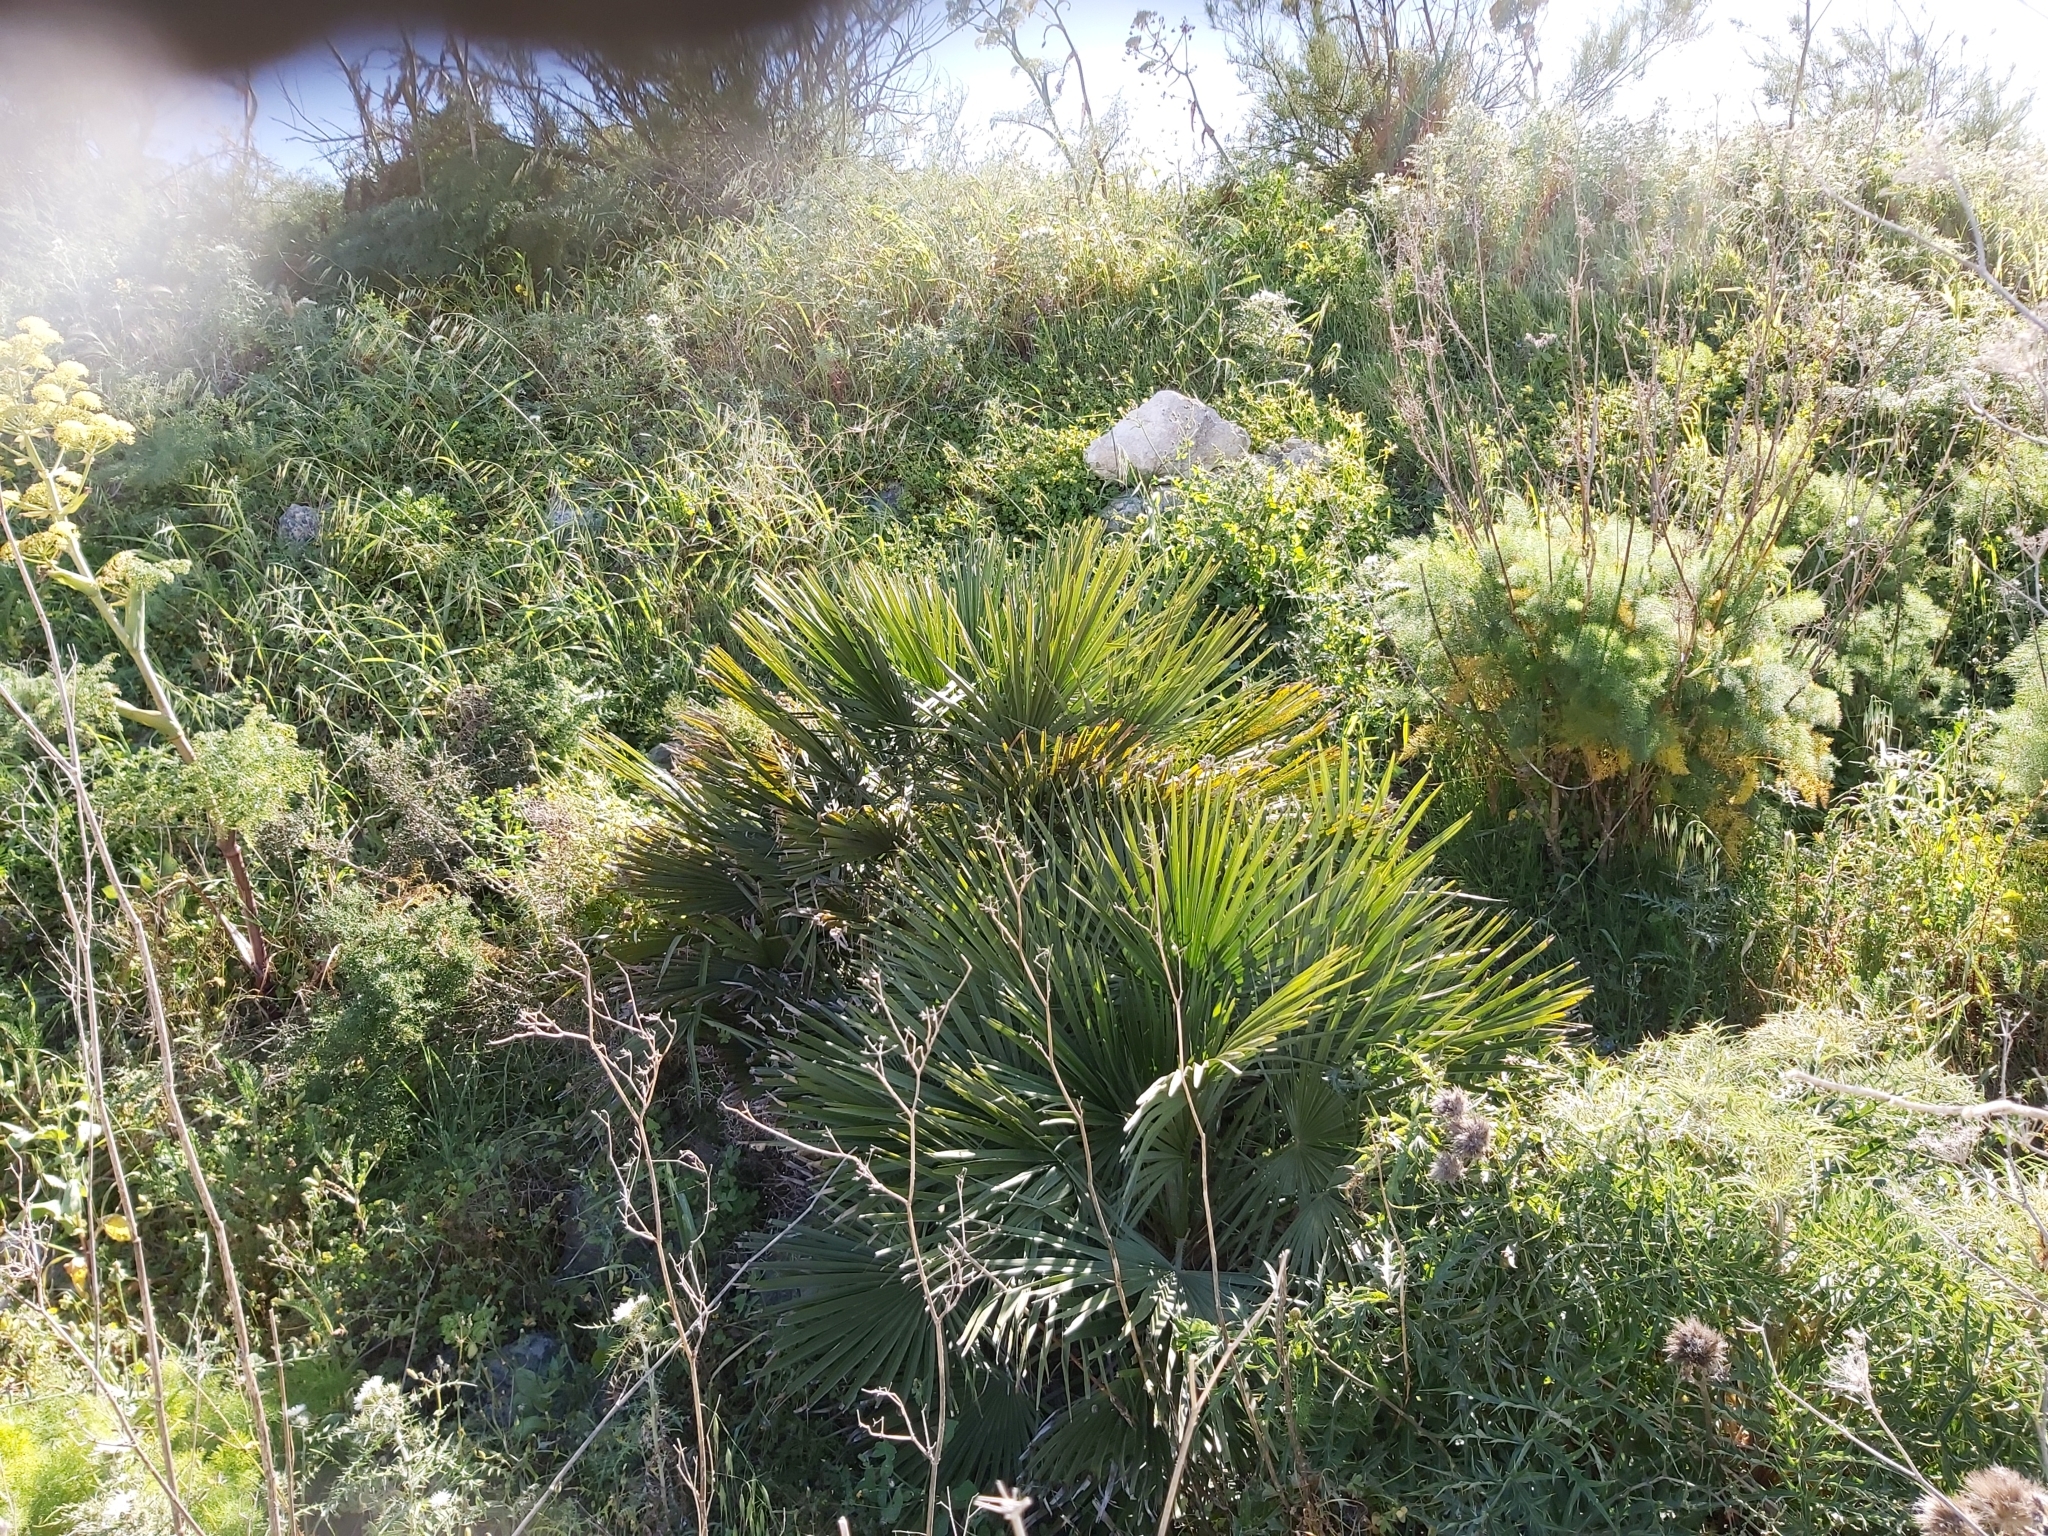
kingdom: Plantae
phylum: Tracheophyta
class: Liliopsida
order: Arecales
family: Arecaceae
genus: Chamaerops
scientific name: Chamaerops humilis
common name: Dwarf fan palm
